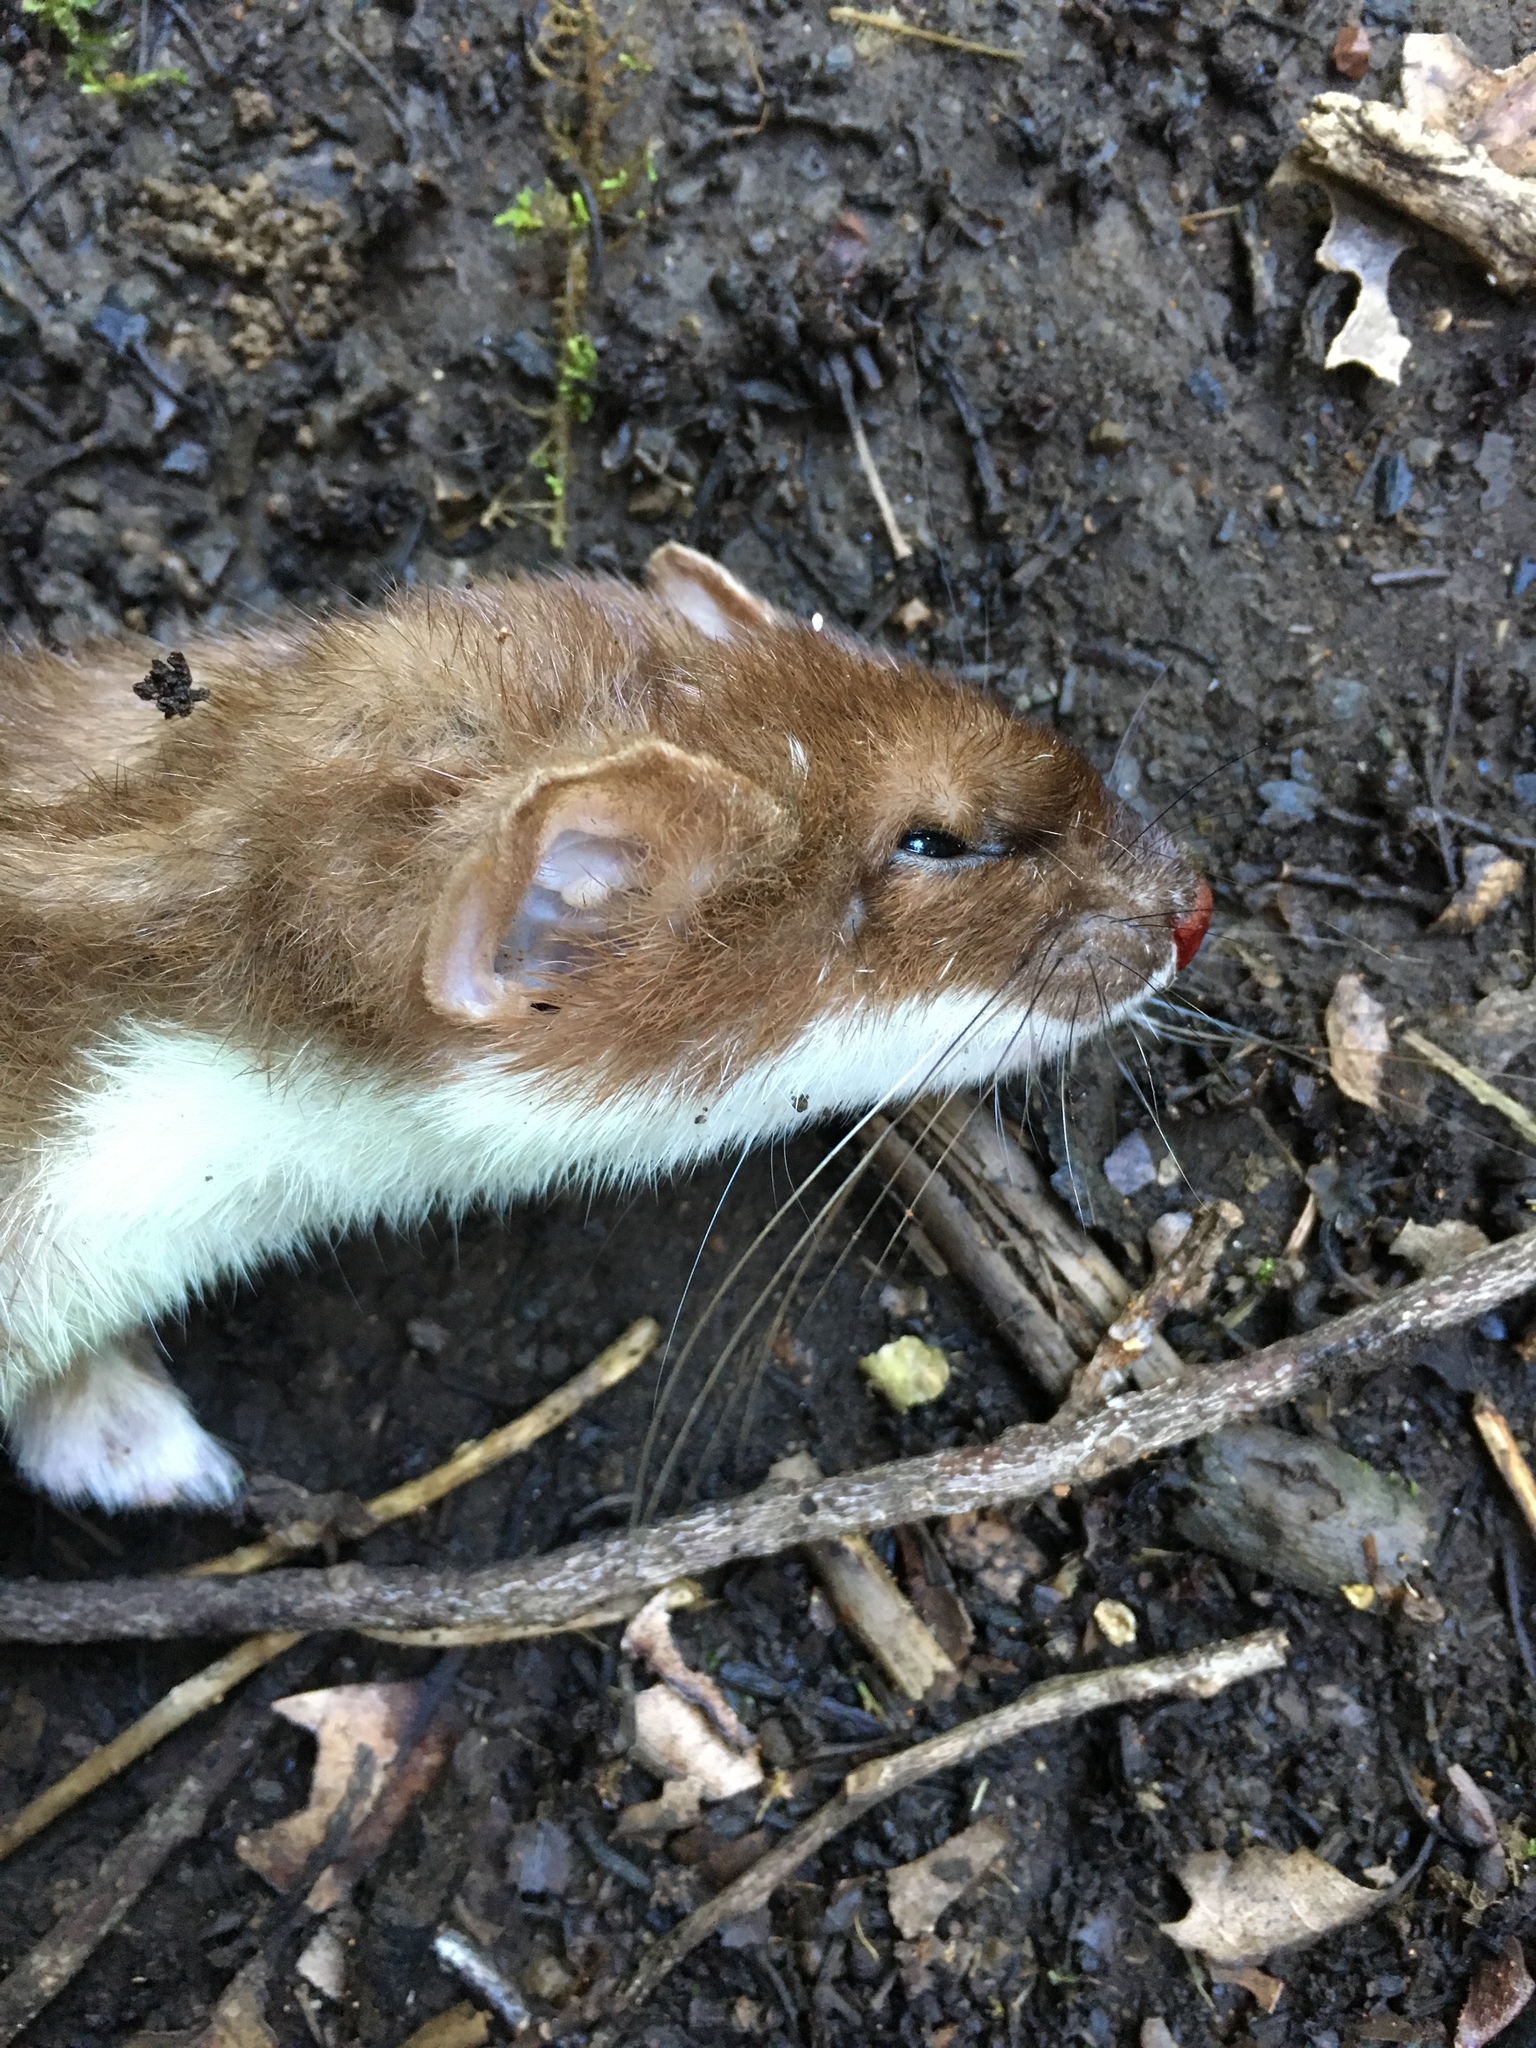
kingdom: Animalia
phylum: Chordata
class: Mammalia
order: Carnivora
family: Mustelidae
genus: Mustela
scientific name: Mustela erminea
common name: Stoat
